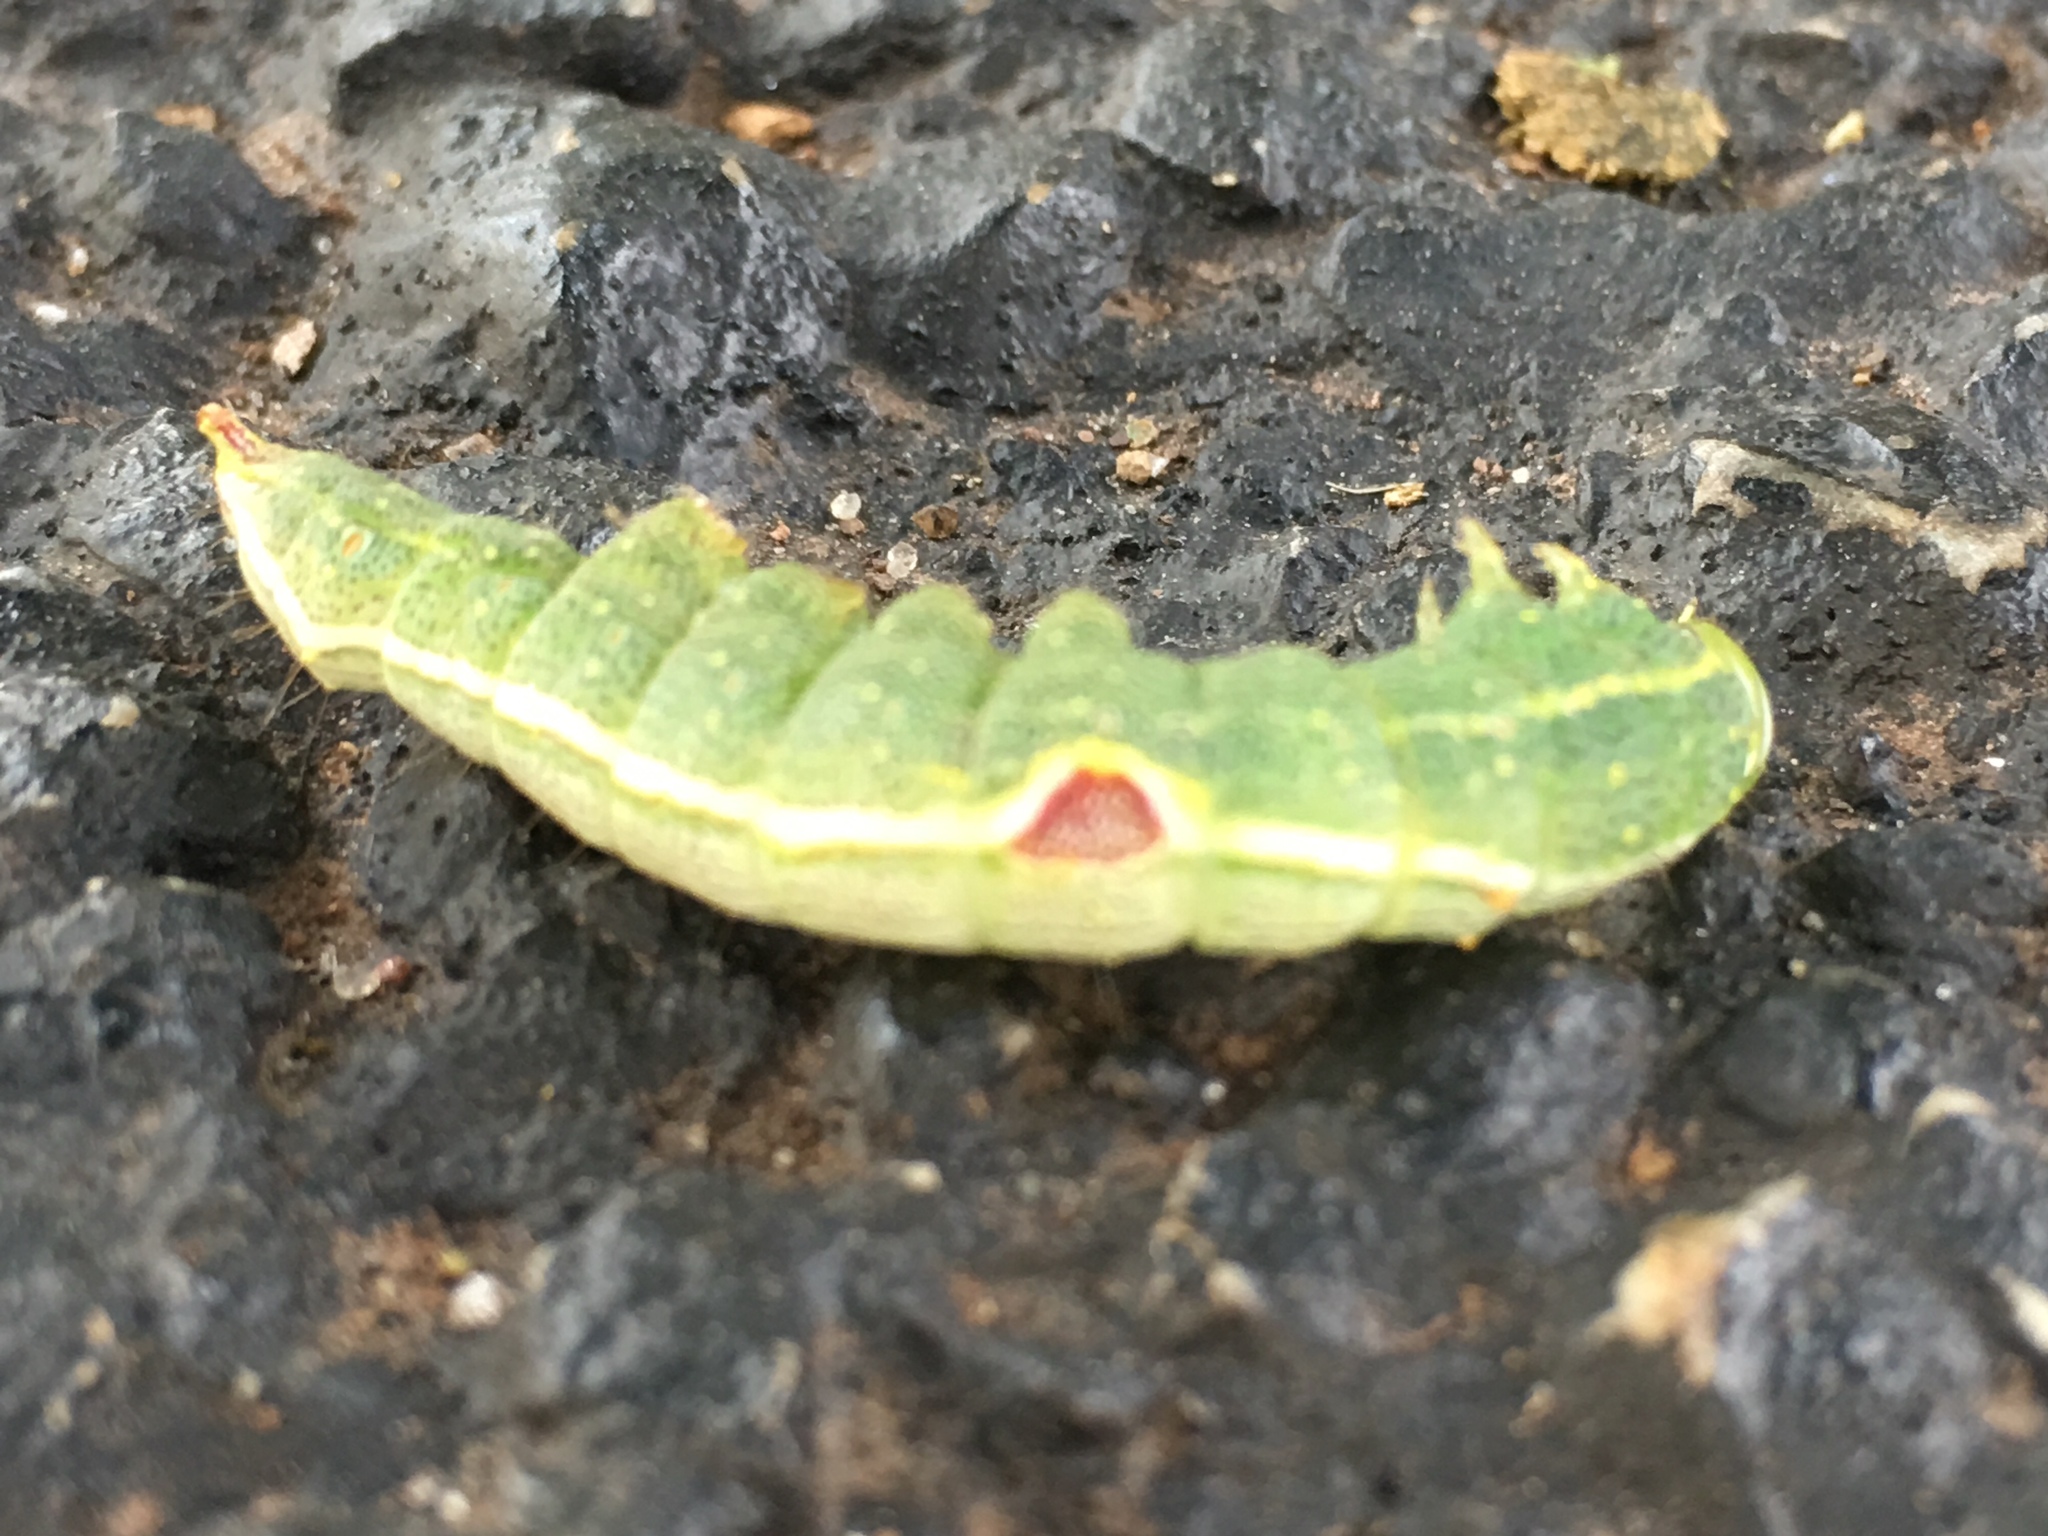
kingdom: Animalia
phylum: Arthropoda
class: Insecta
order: Lepidoptera
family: Notodontidae
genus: Disphragis
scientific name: Disphragis Cecrita guttivitta
